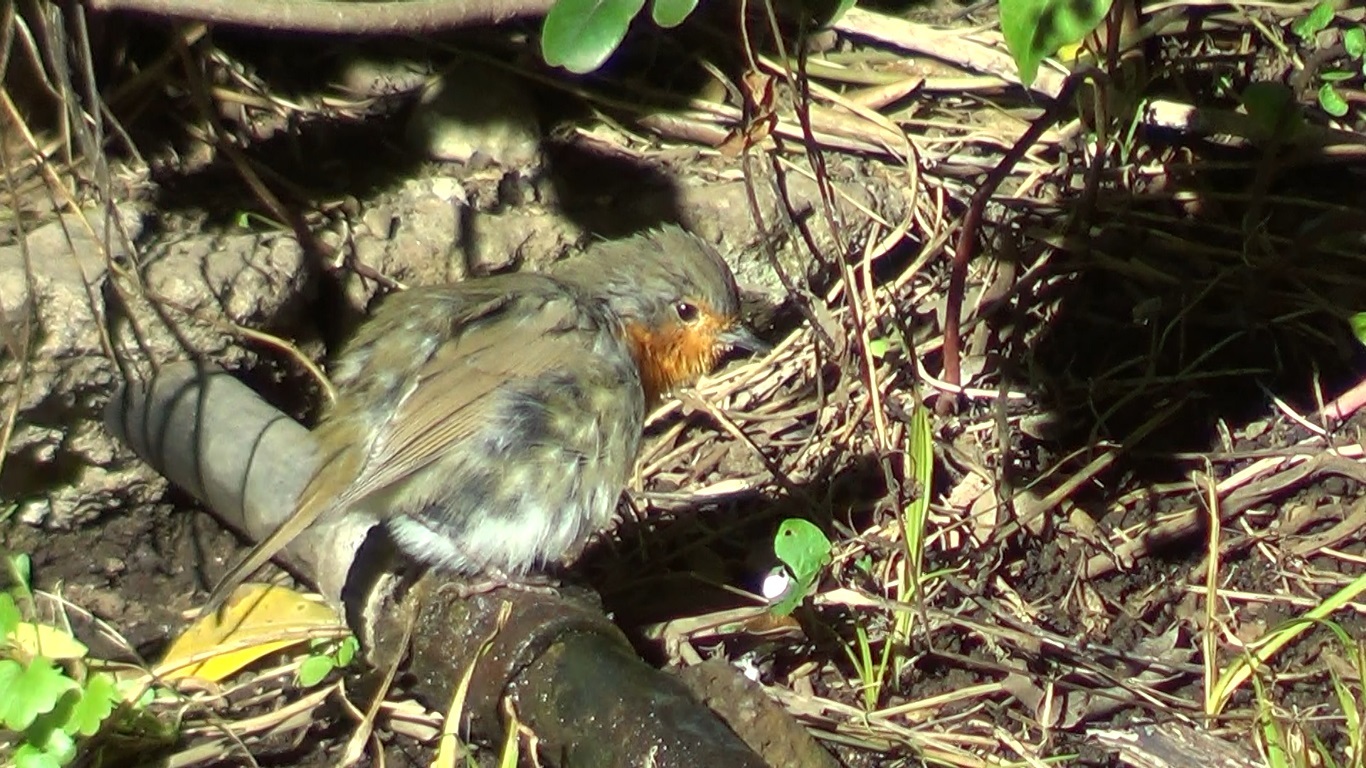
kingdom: Animalia
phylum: Chordata
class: Aves
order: Passeriformes
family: Muscicapidae
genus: Erithacus
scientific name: Erithacus rubecula
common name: European robin
